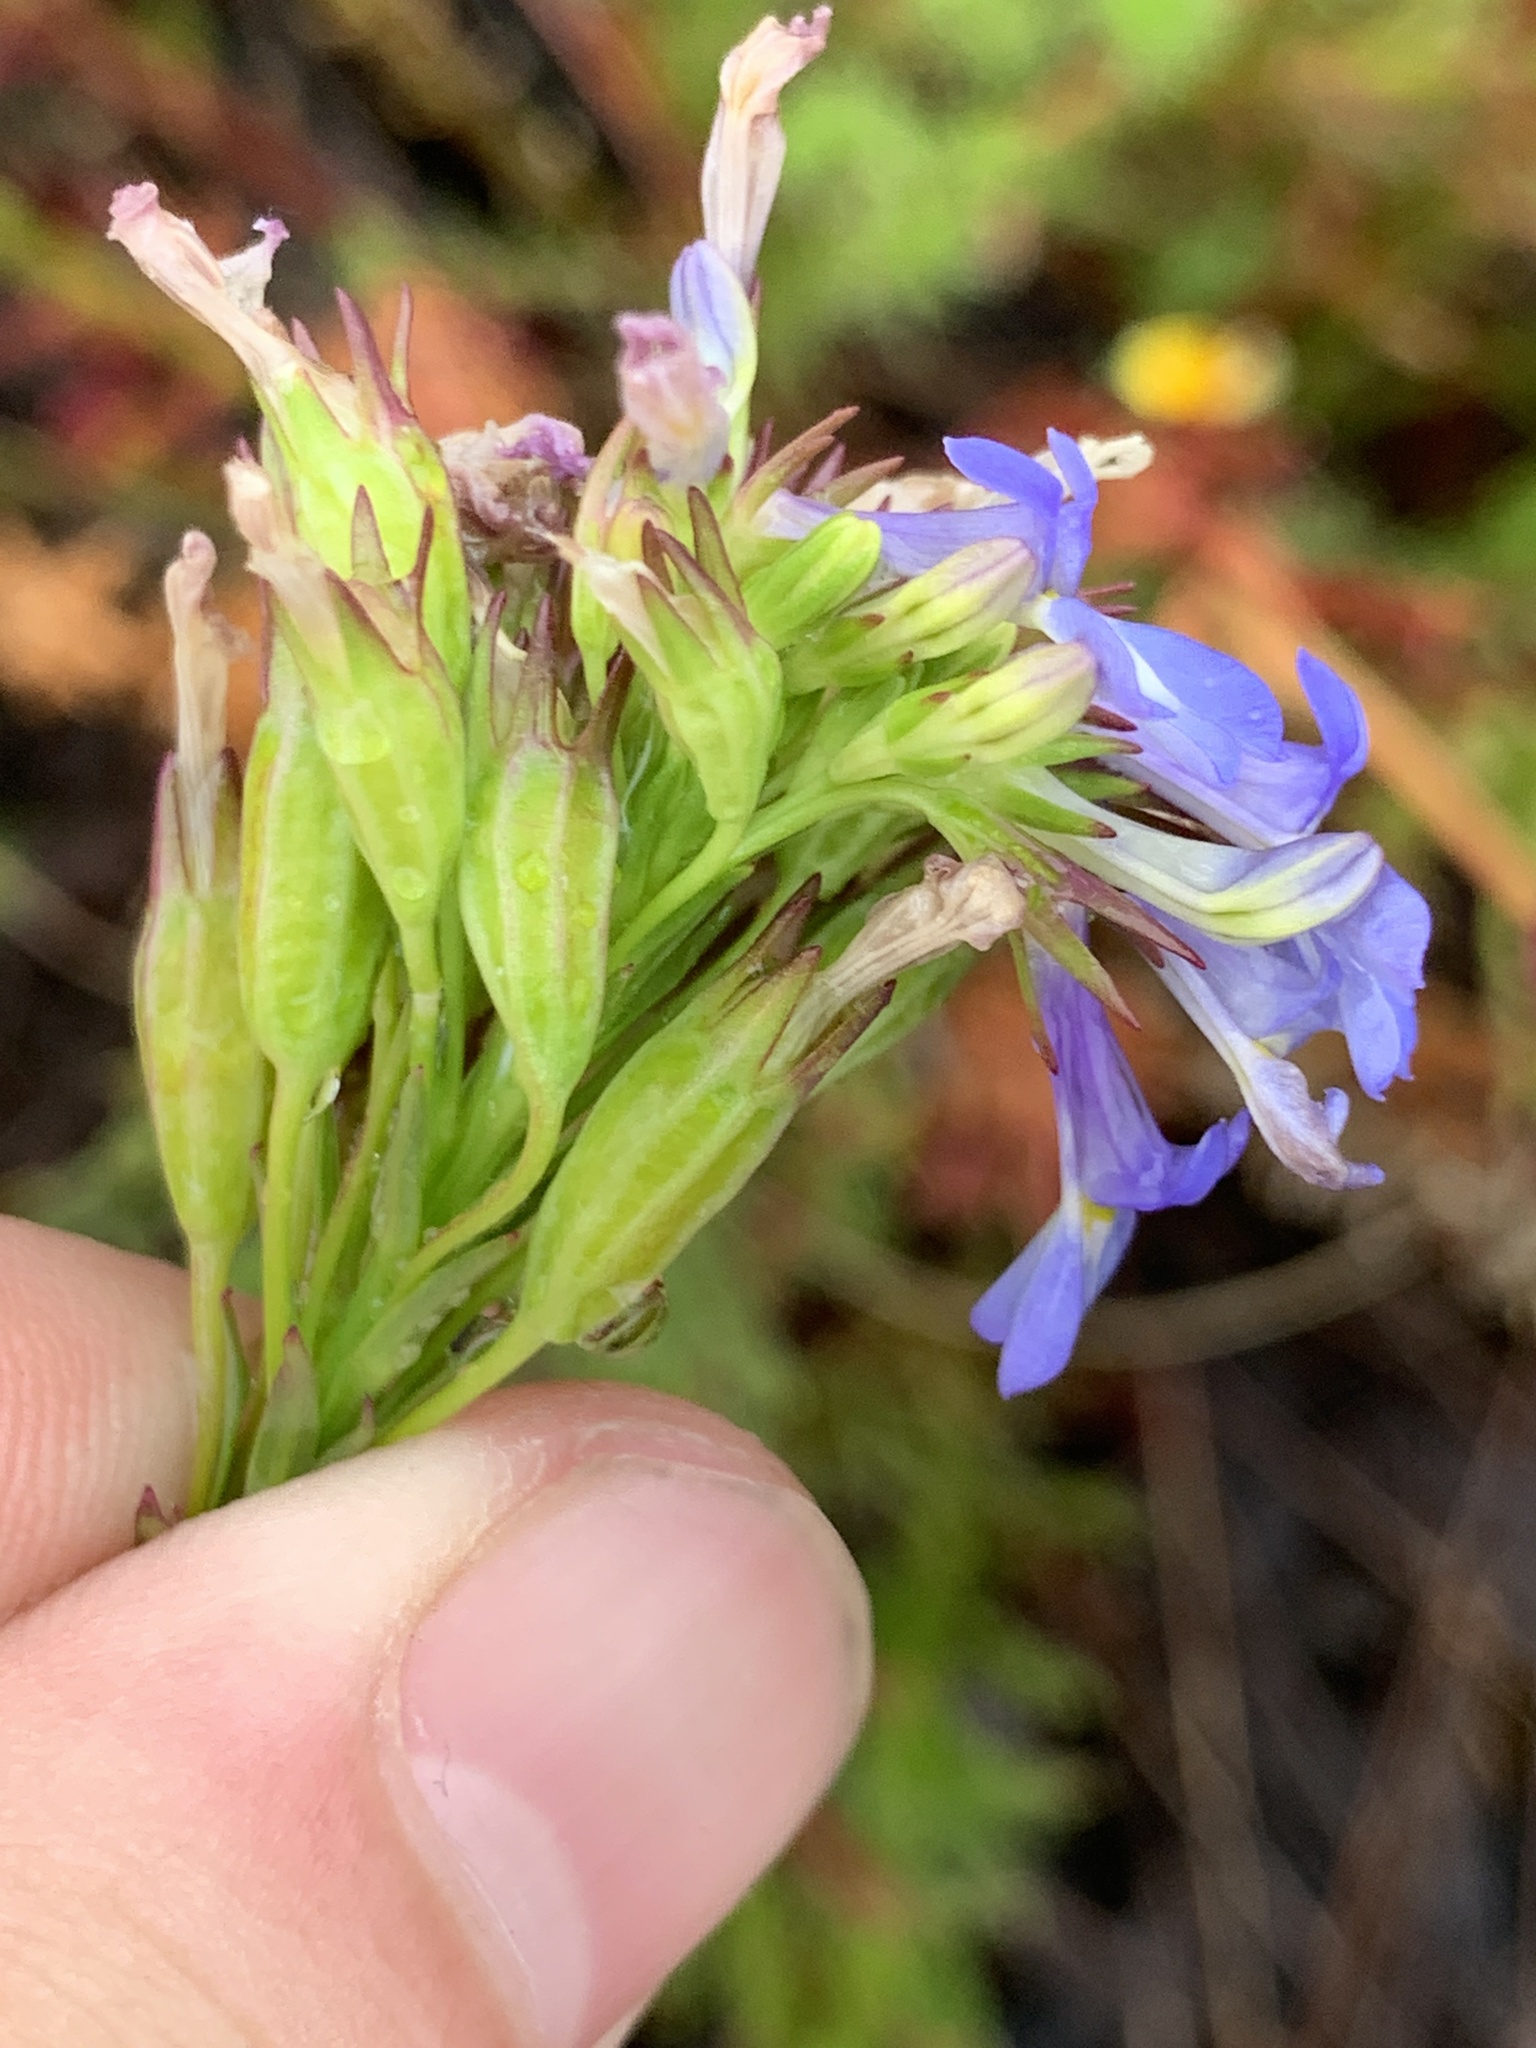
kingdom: Plantae
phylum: Tracheophyta
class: Magnoliopsida
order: Asterales
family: Campanulaceae
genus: Lobelia
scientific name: Lobelia comosa
